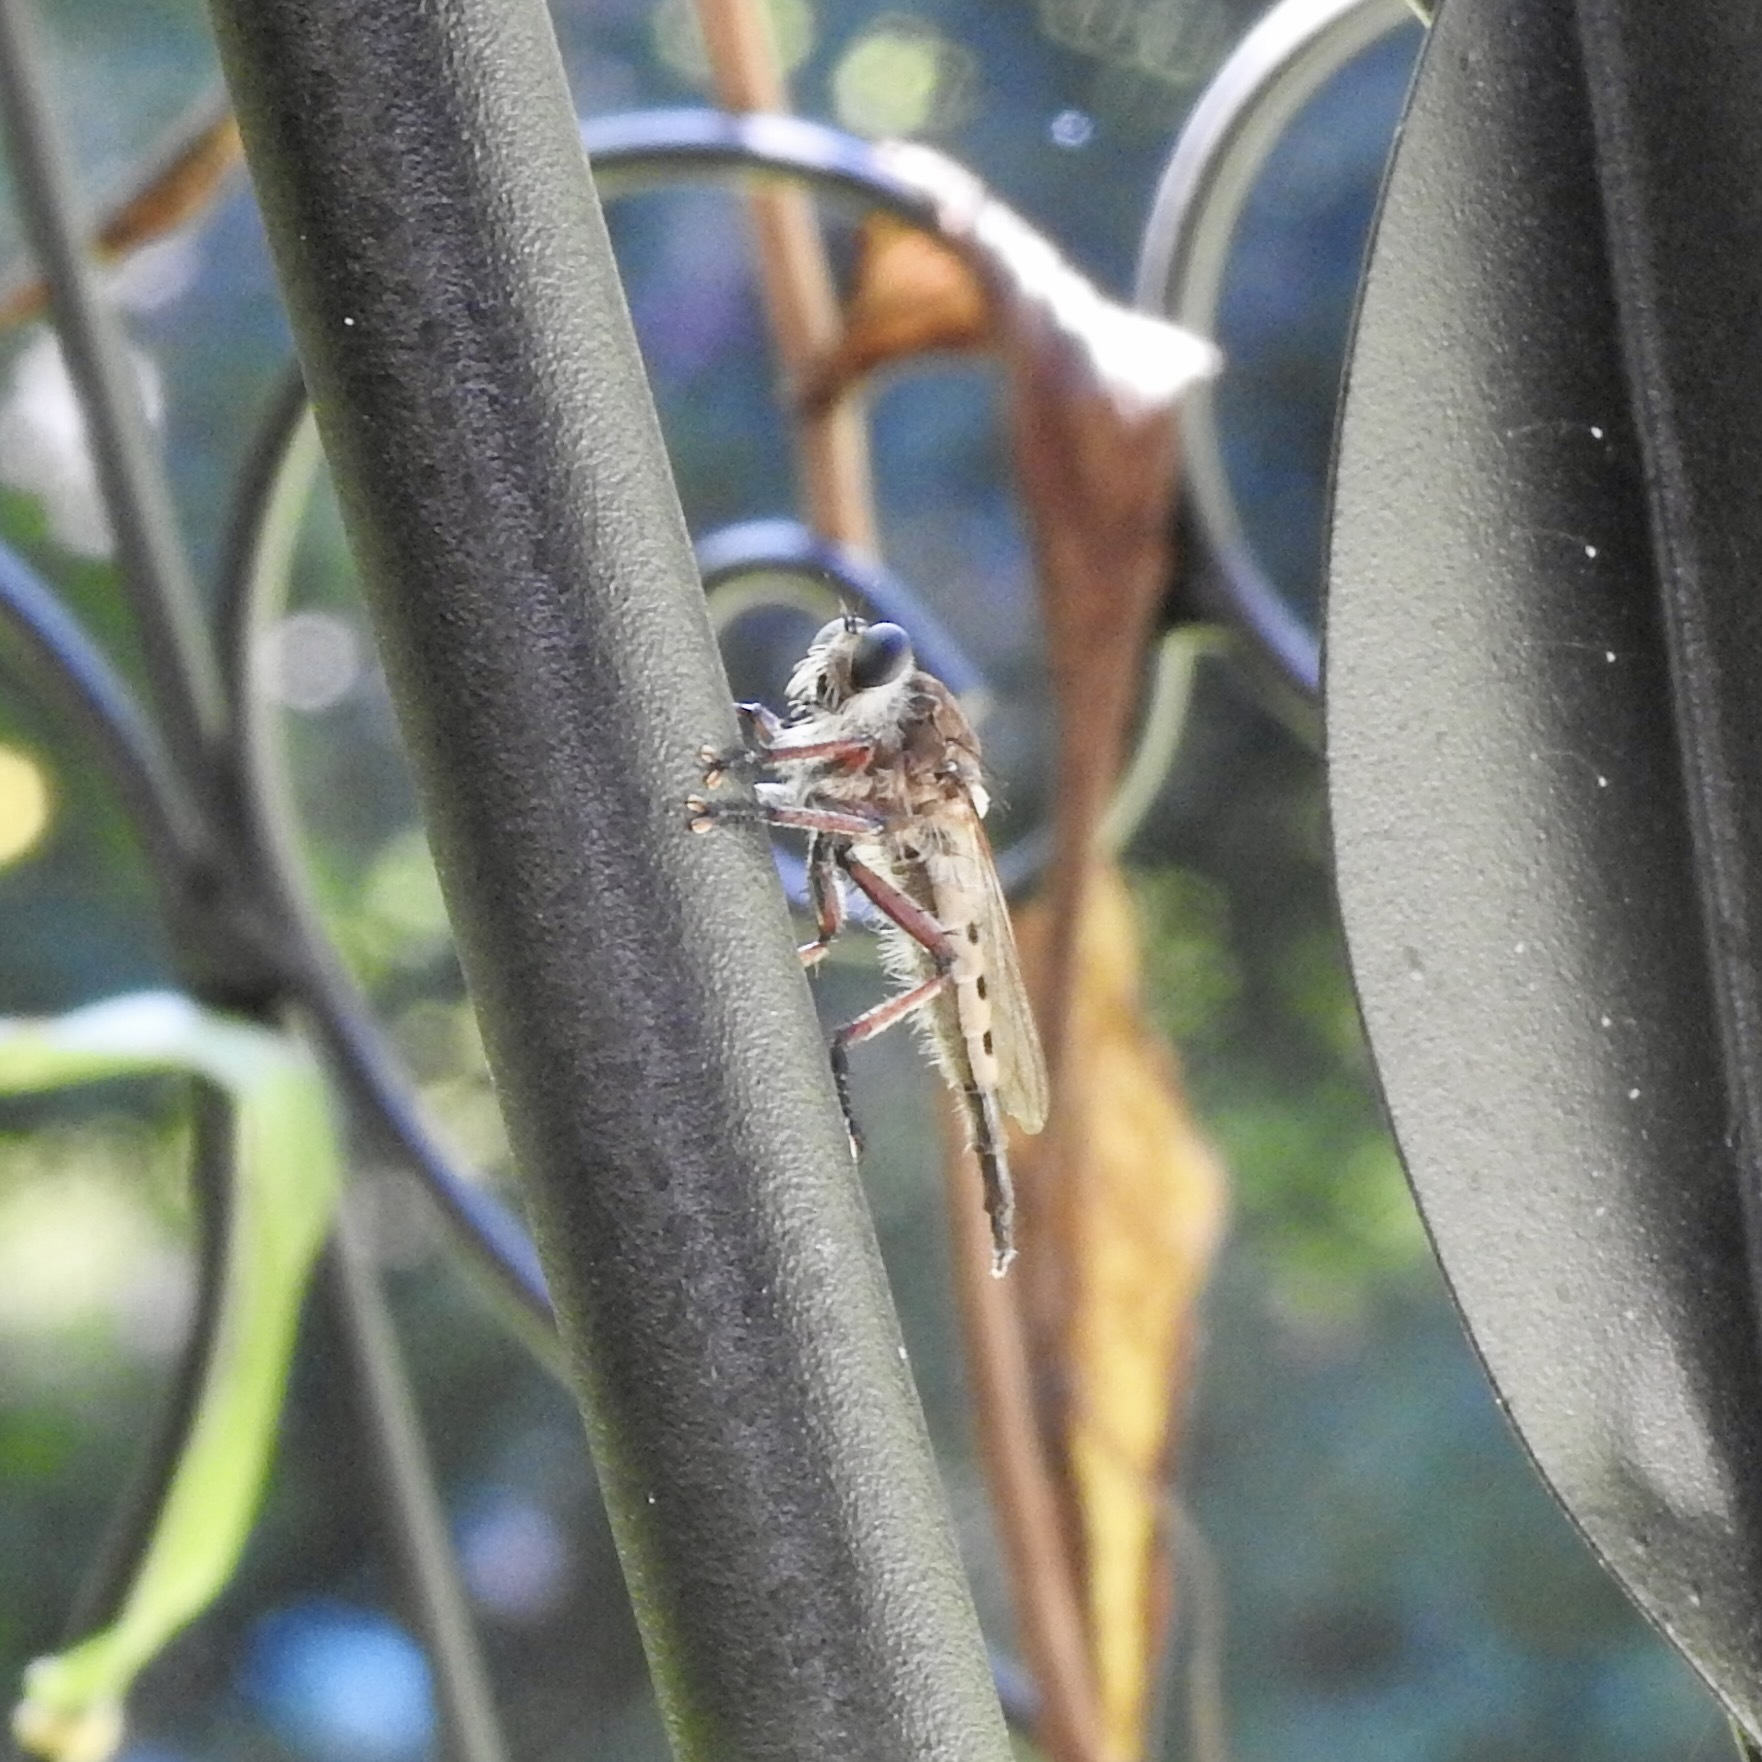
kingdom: Animalia
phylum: Arthropoda
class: Insecta
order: Diptera
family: Asilidae
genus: Promachus
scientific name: Promachus hinei
